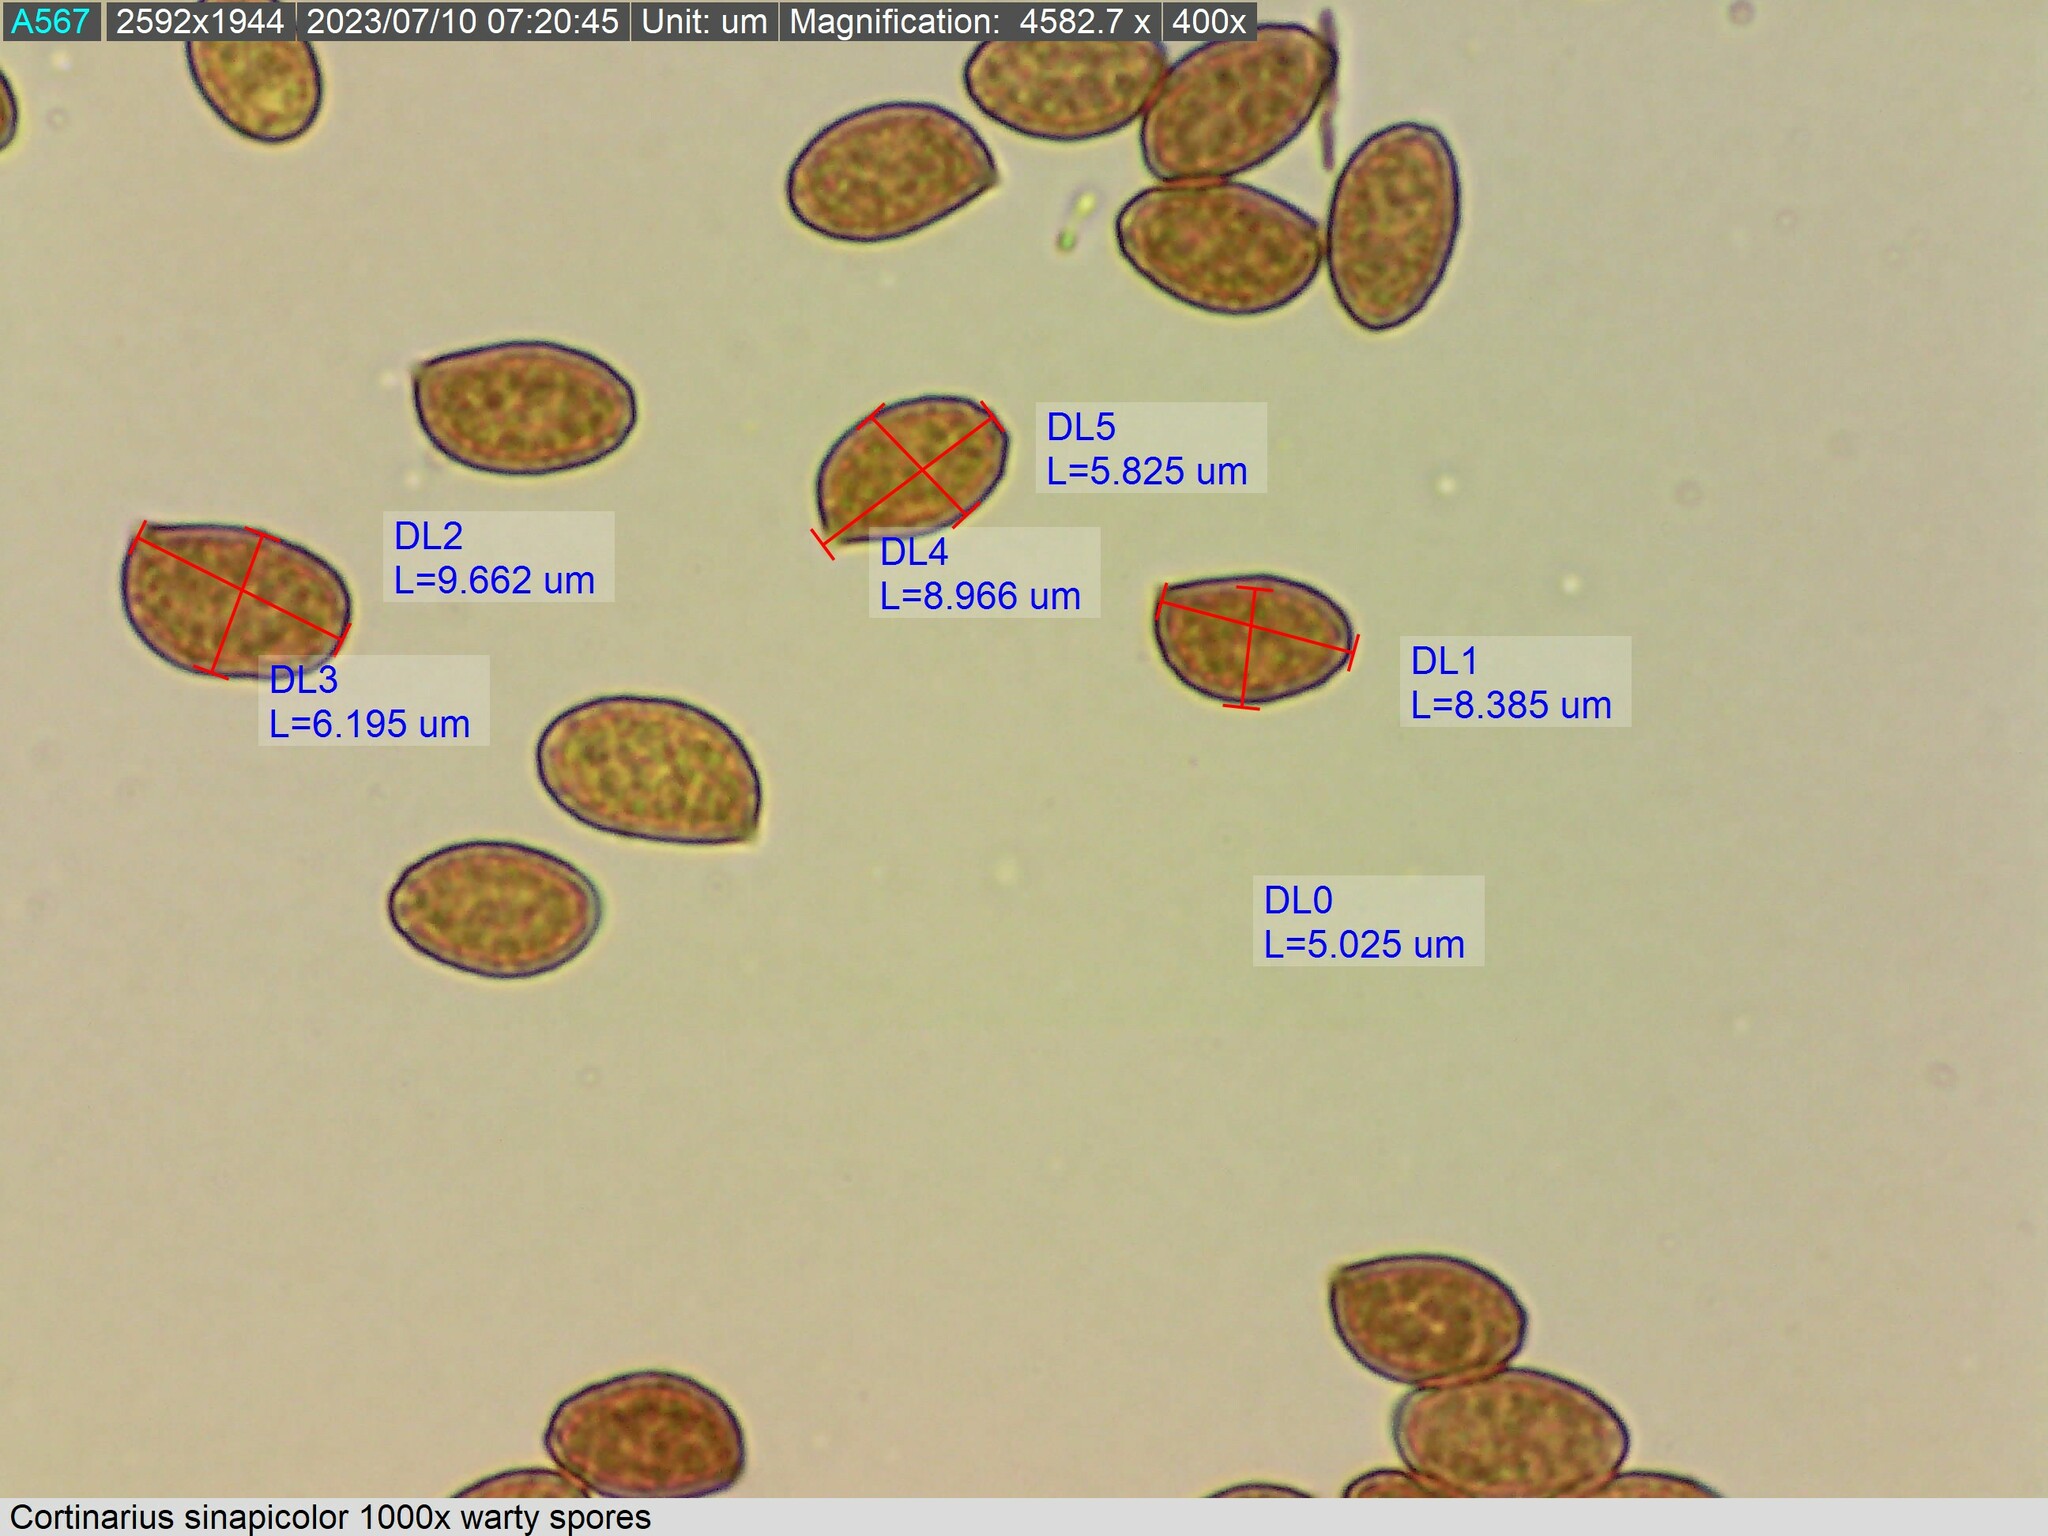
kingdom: Fungi
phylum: Basidiomycota
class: Agaricomycetes
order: Agaricales
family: Cortinariaceae
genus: Cortinarius
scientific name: Cortinarius sinapicolor
